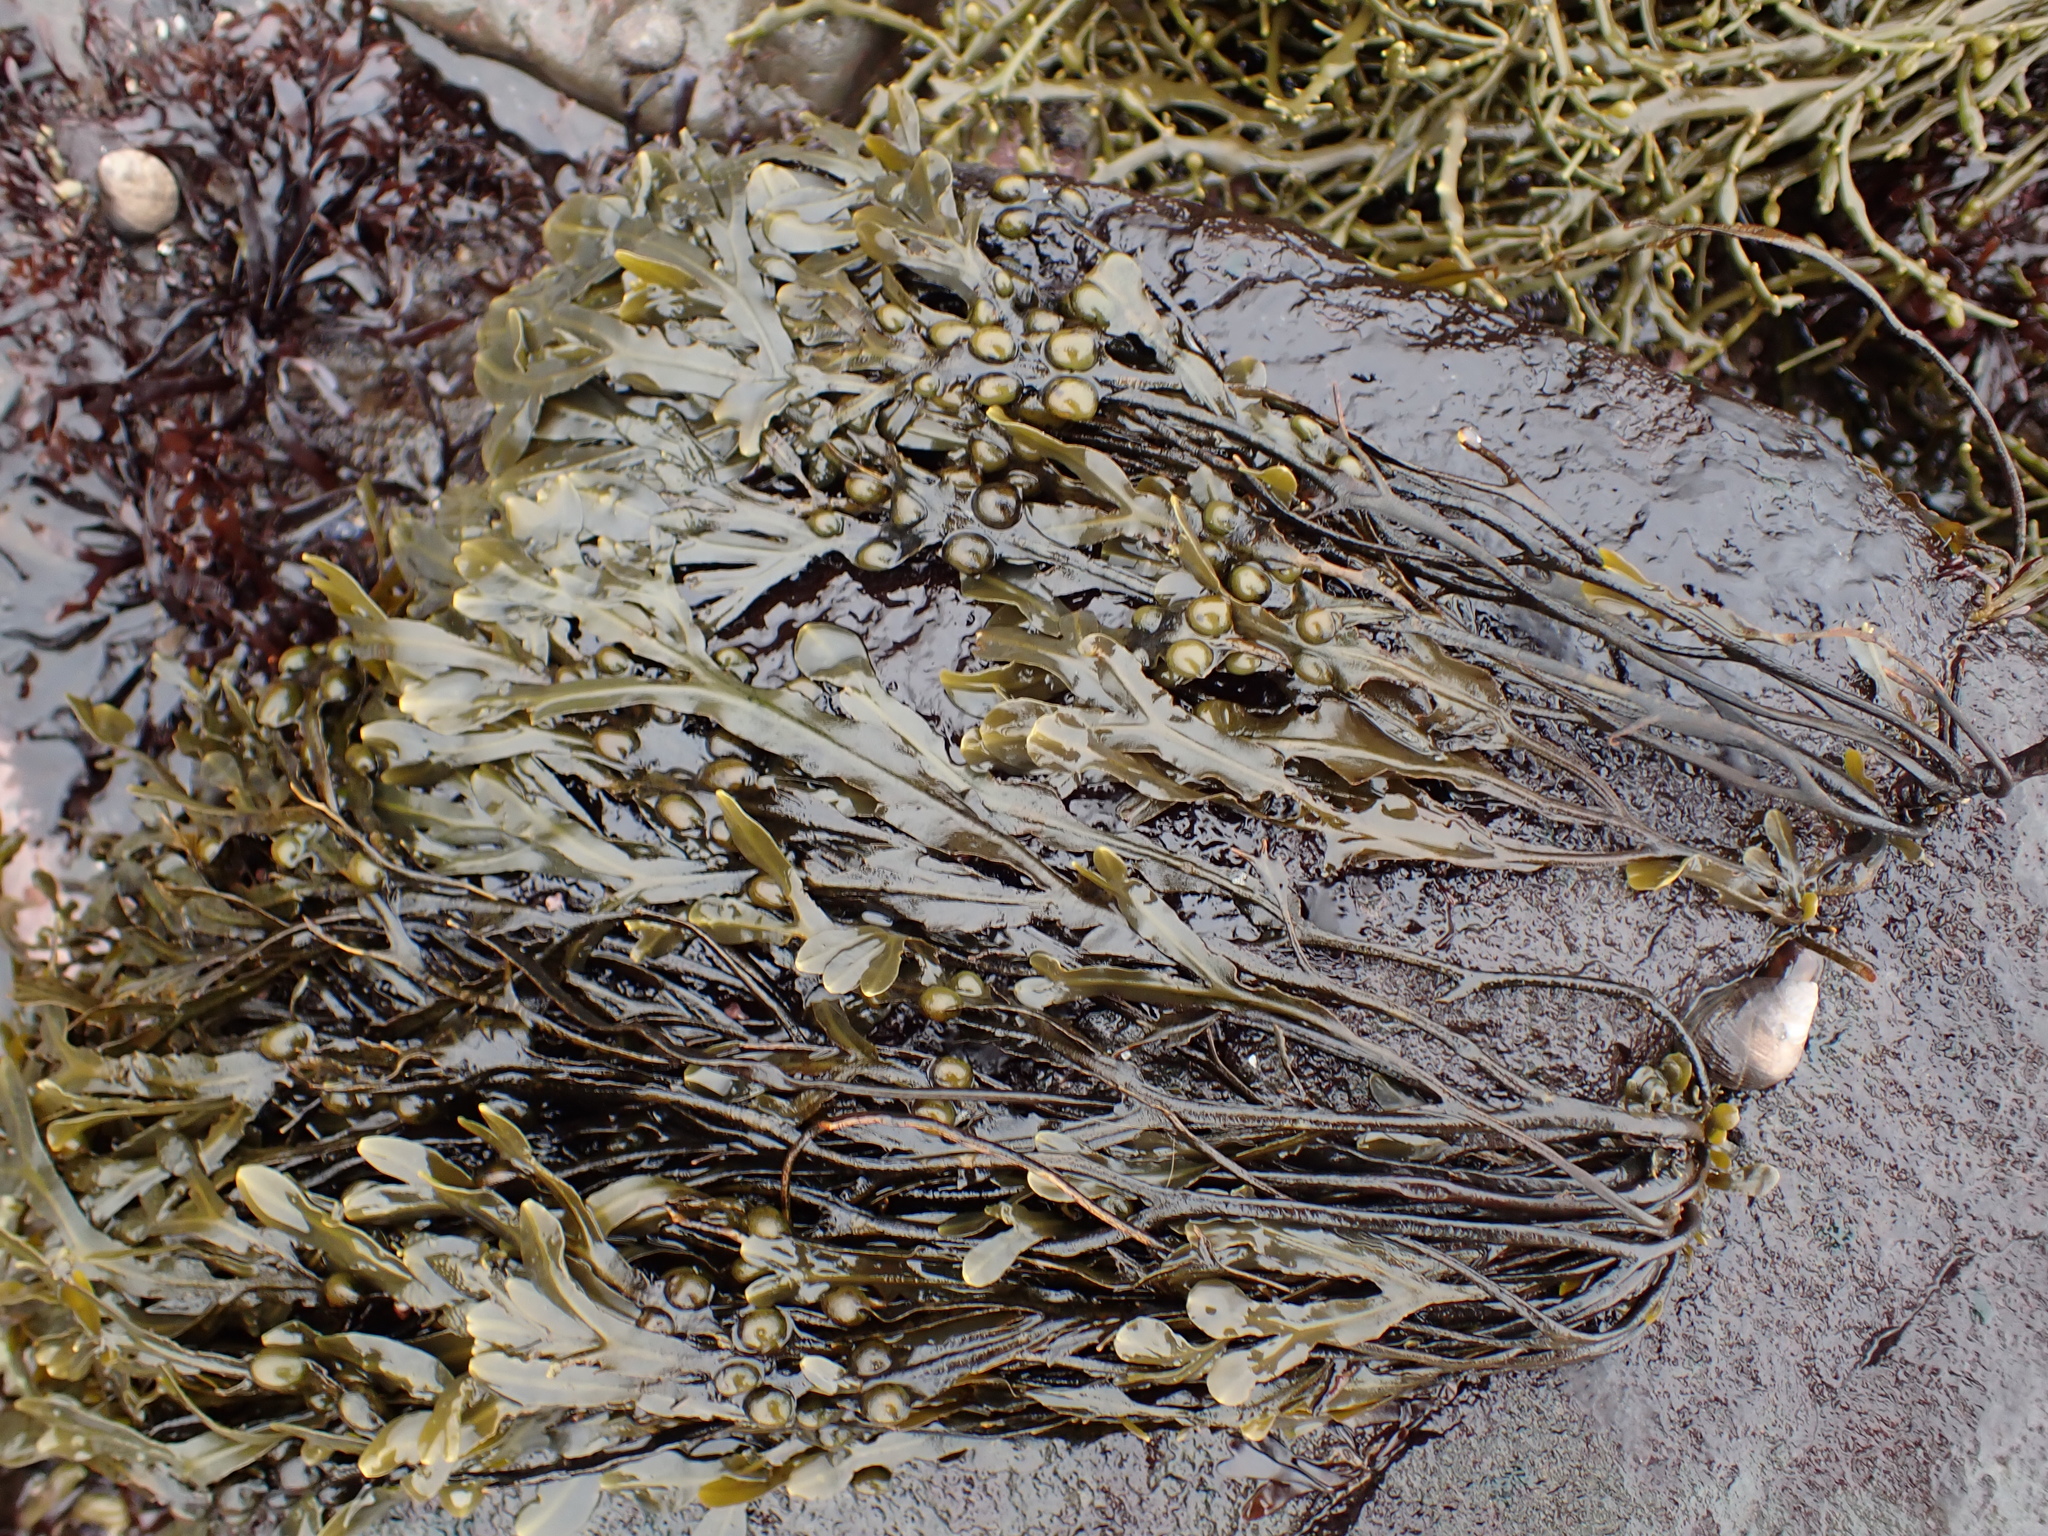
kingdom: Chromista
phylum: Ochrophyta
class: Phaeophyceae
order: Fucales
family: Fucaceae
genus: Fucus
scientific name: Fucus vesiculosus
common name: Bladder wrack
